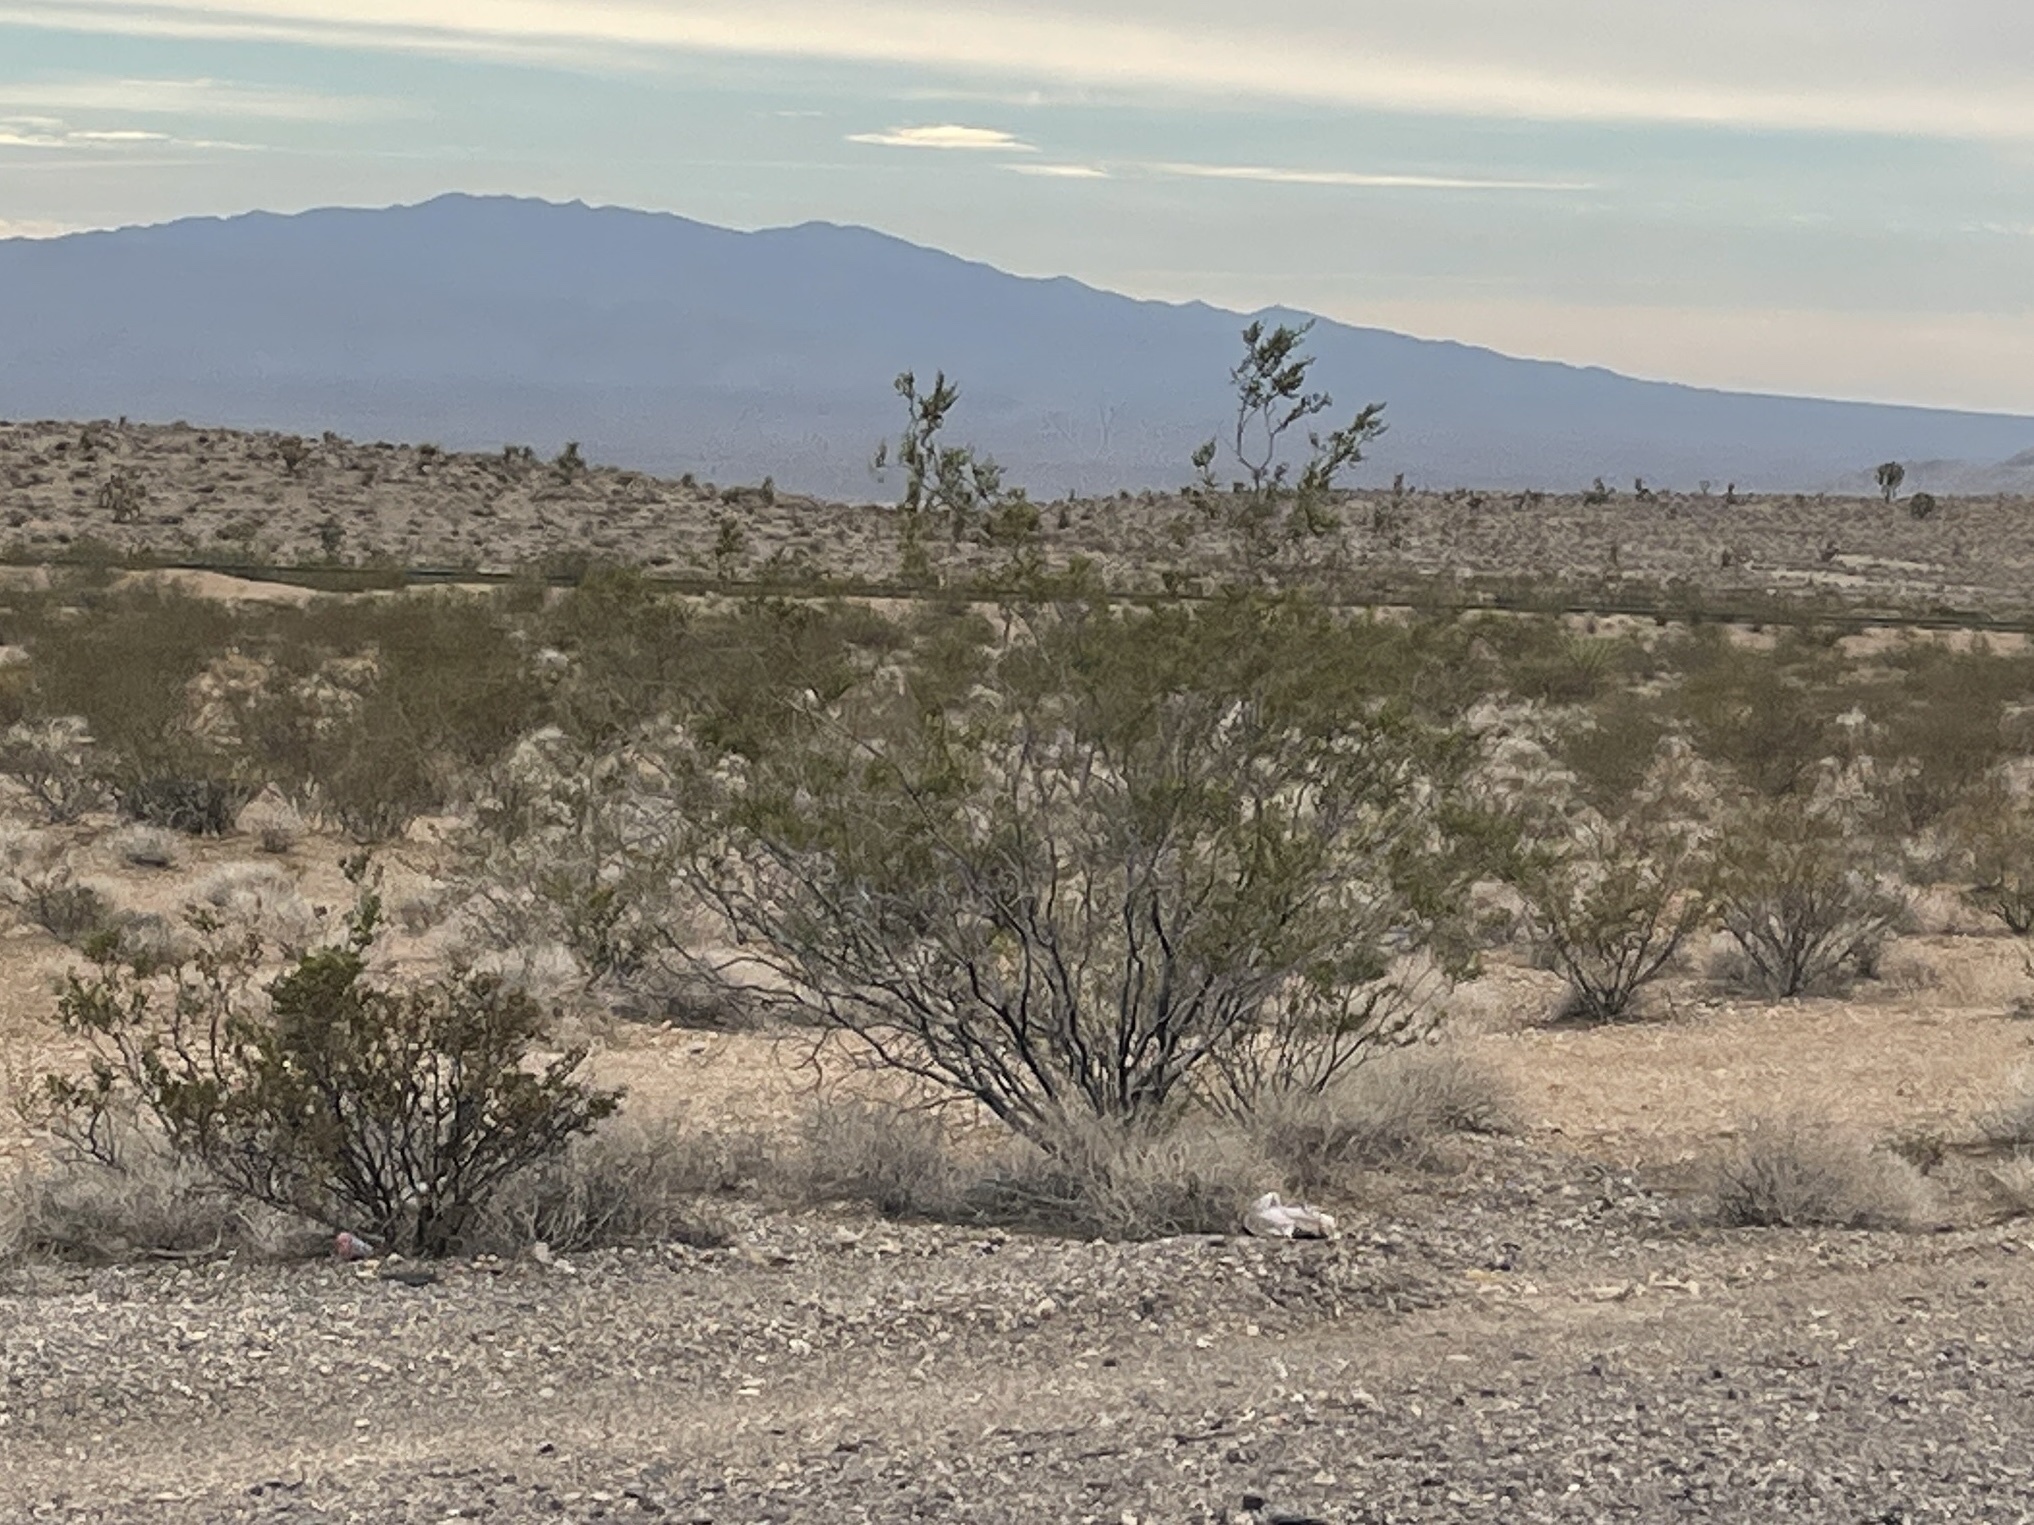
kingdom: Plantae
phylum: Tracheophyta
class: Magnoliopsida
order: Zygophyllales
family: Zygophyllaceae
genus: Larrea
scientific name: Larrea tridentata
